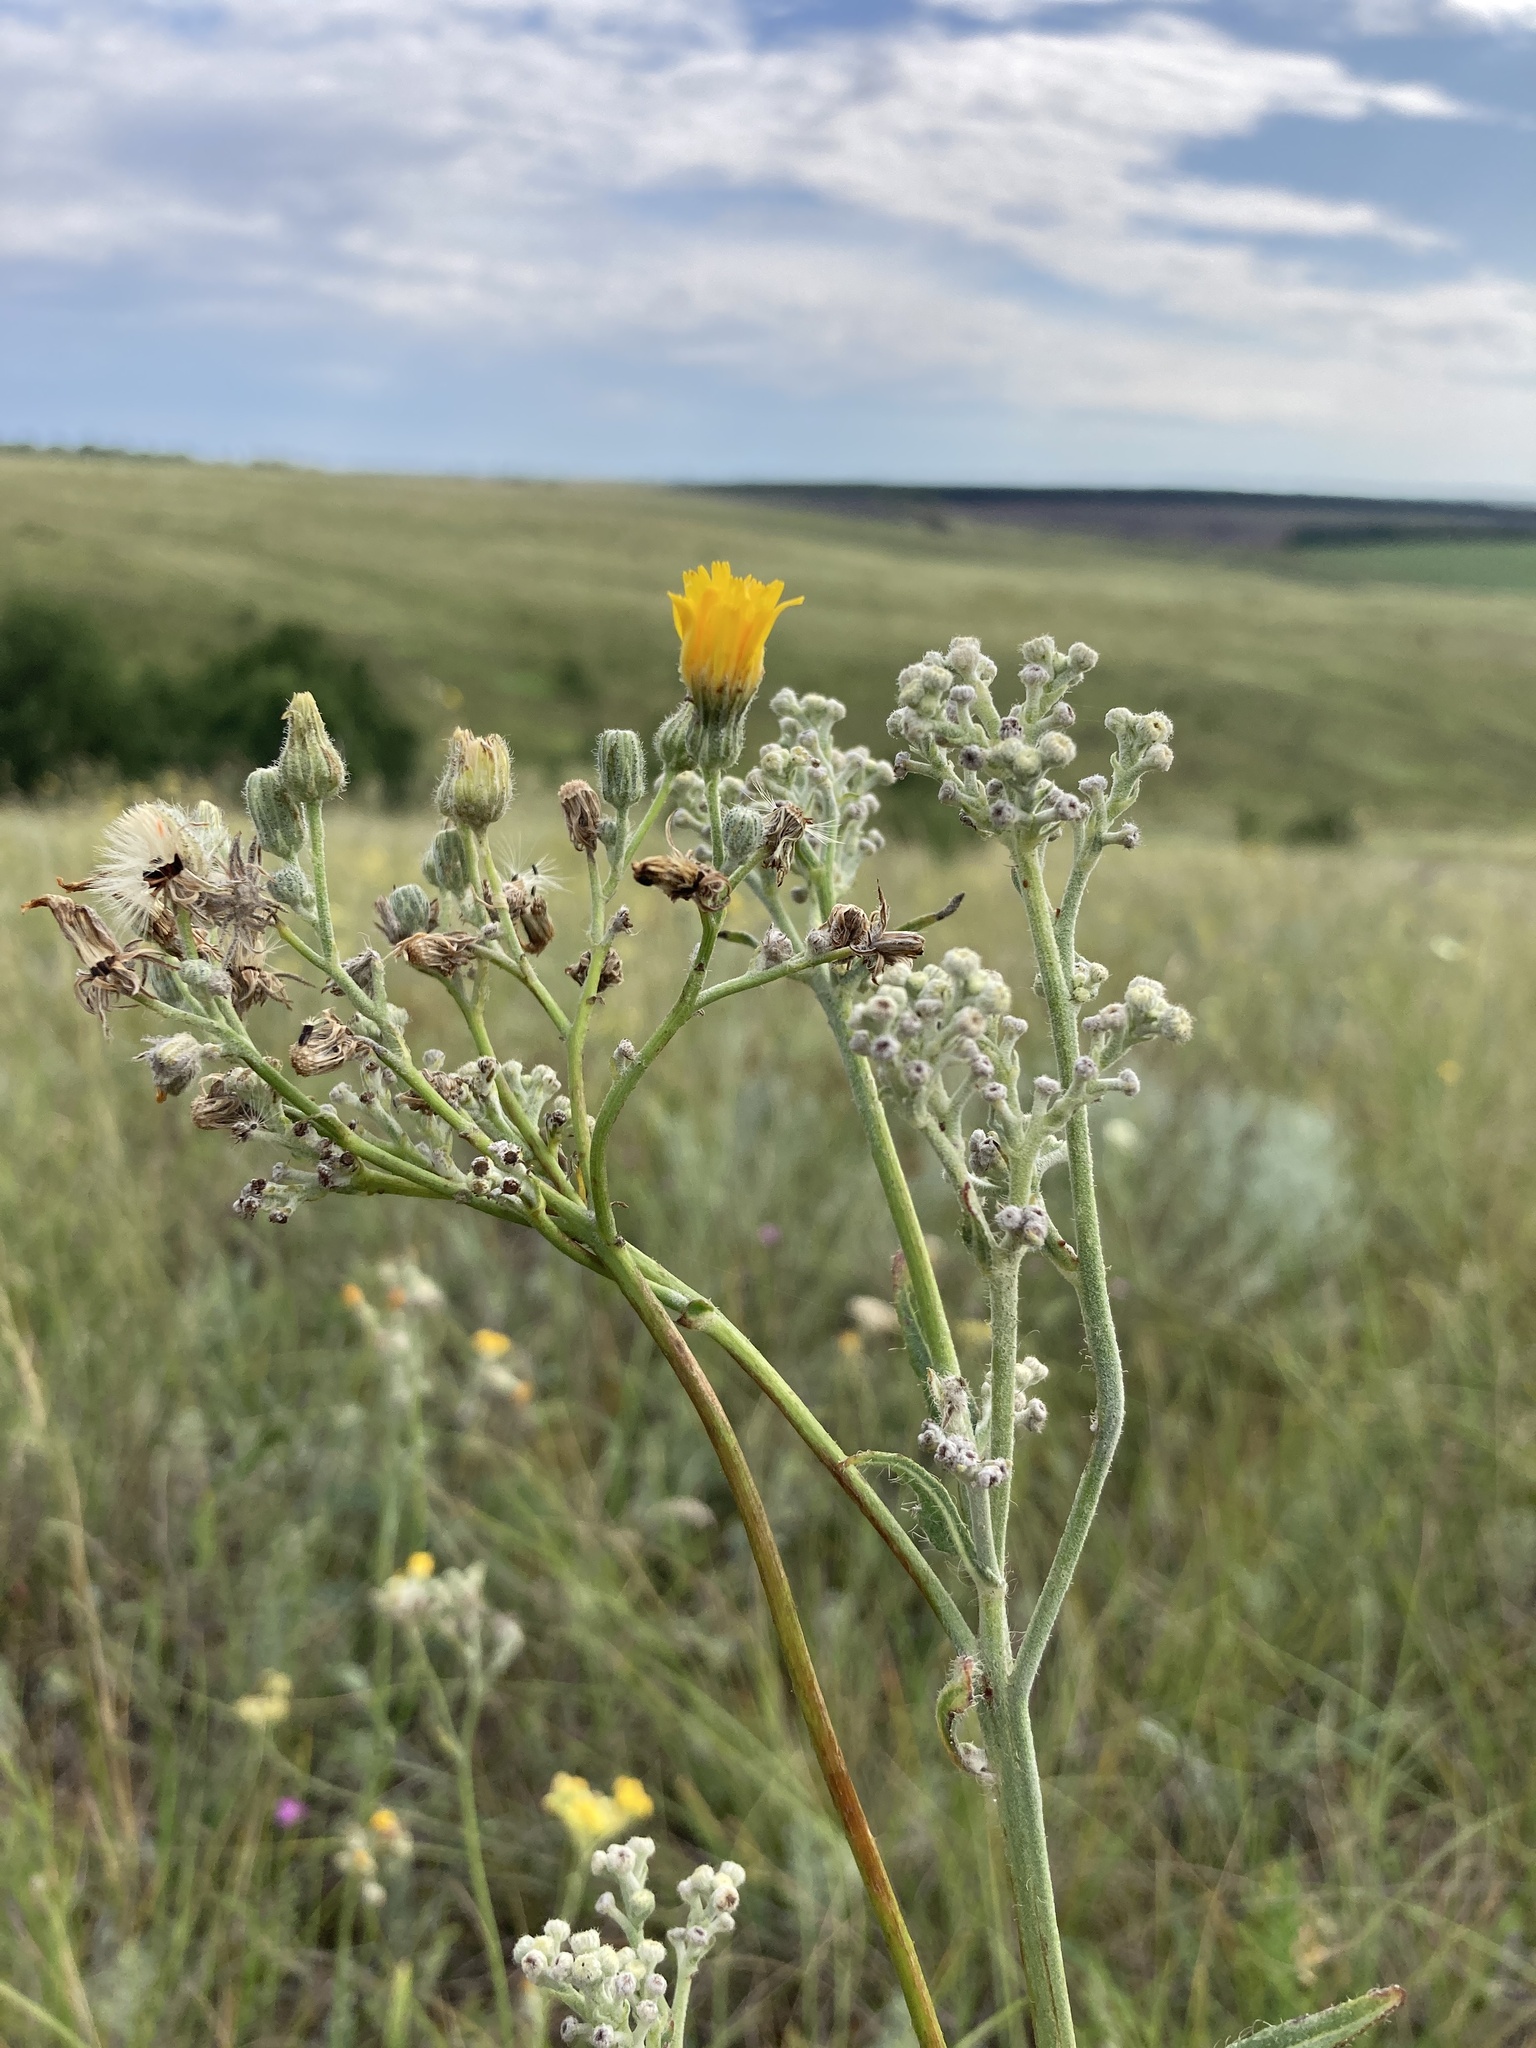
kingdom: Plantae
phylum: Tracheophyta
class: Magnoliopsida
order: Asterales
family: Asteraceae
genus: Pilosella
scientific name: Pilosella echioides
